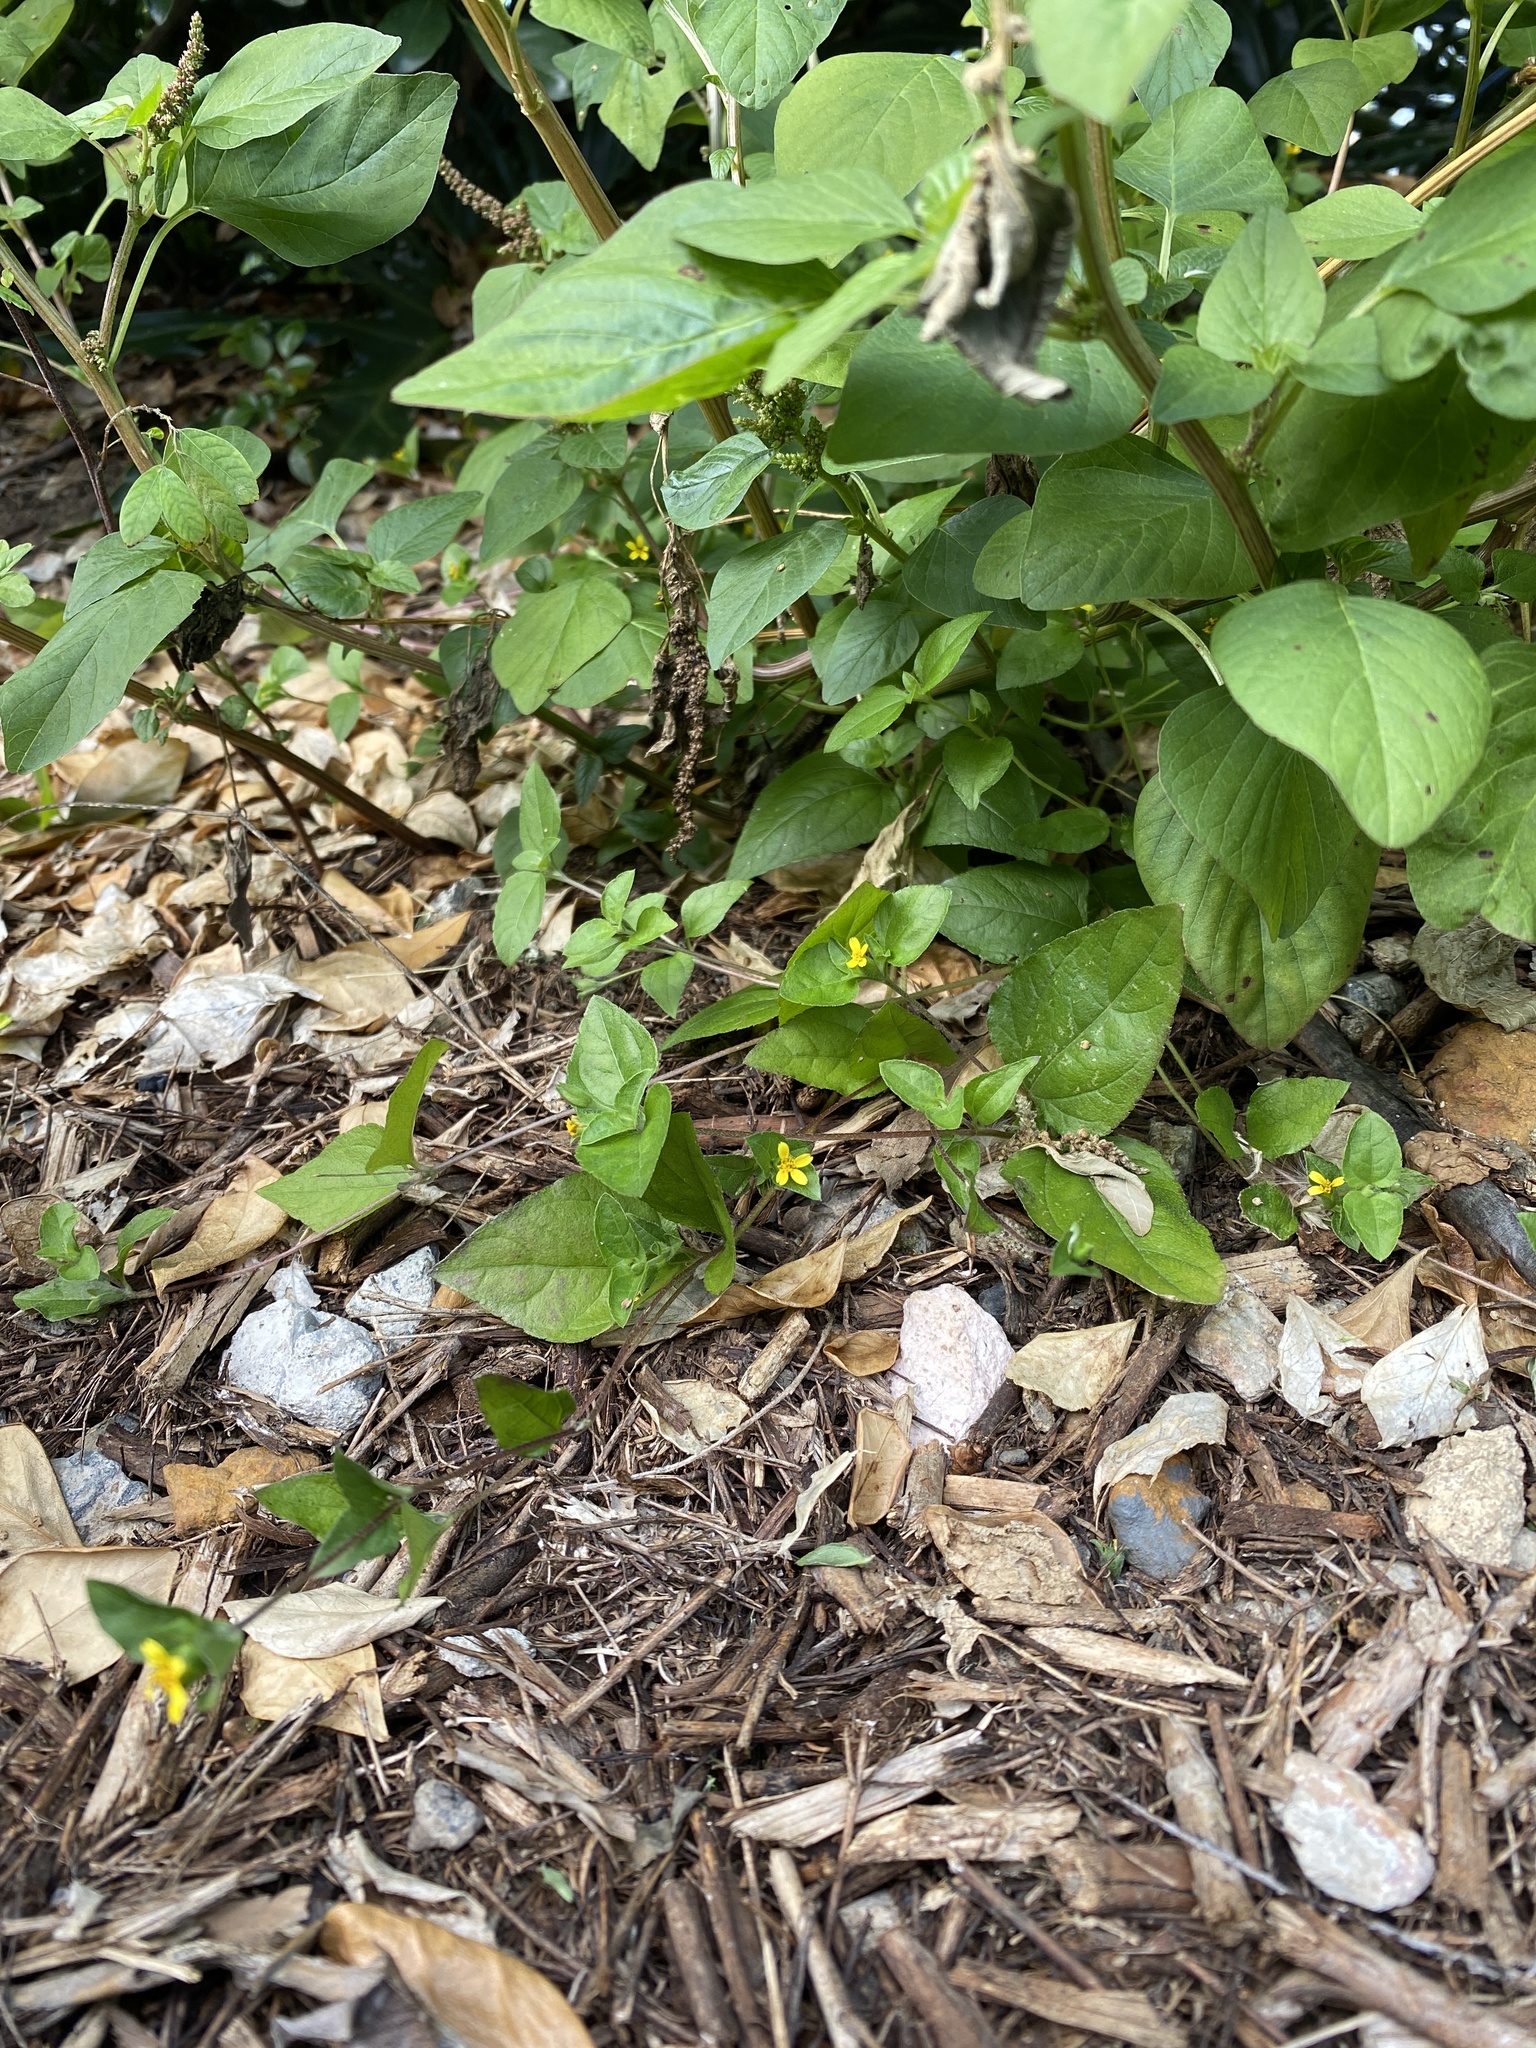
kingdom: Plantae
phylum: Tracheophyta
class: Magnoliopsida
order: Asterales
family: Asteraceae
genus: Calyptocarpus
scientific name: Calyptocarpus vialis
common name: Straggler daisy
